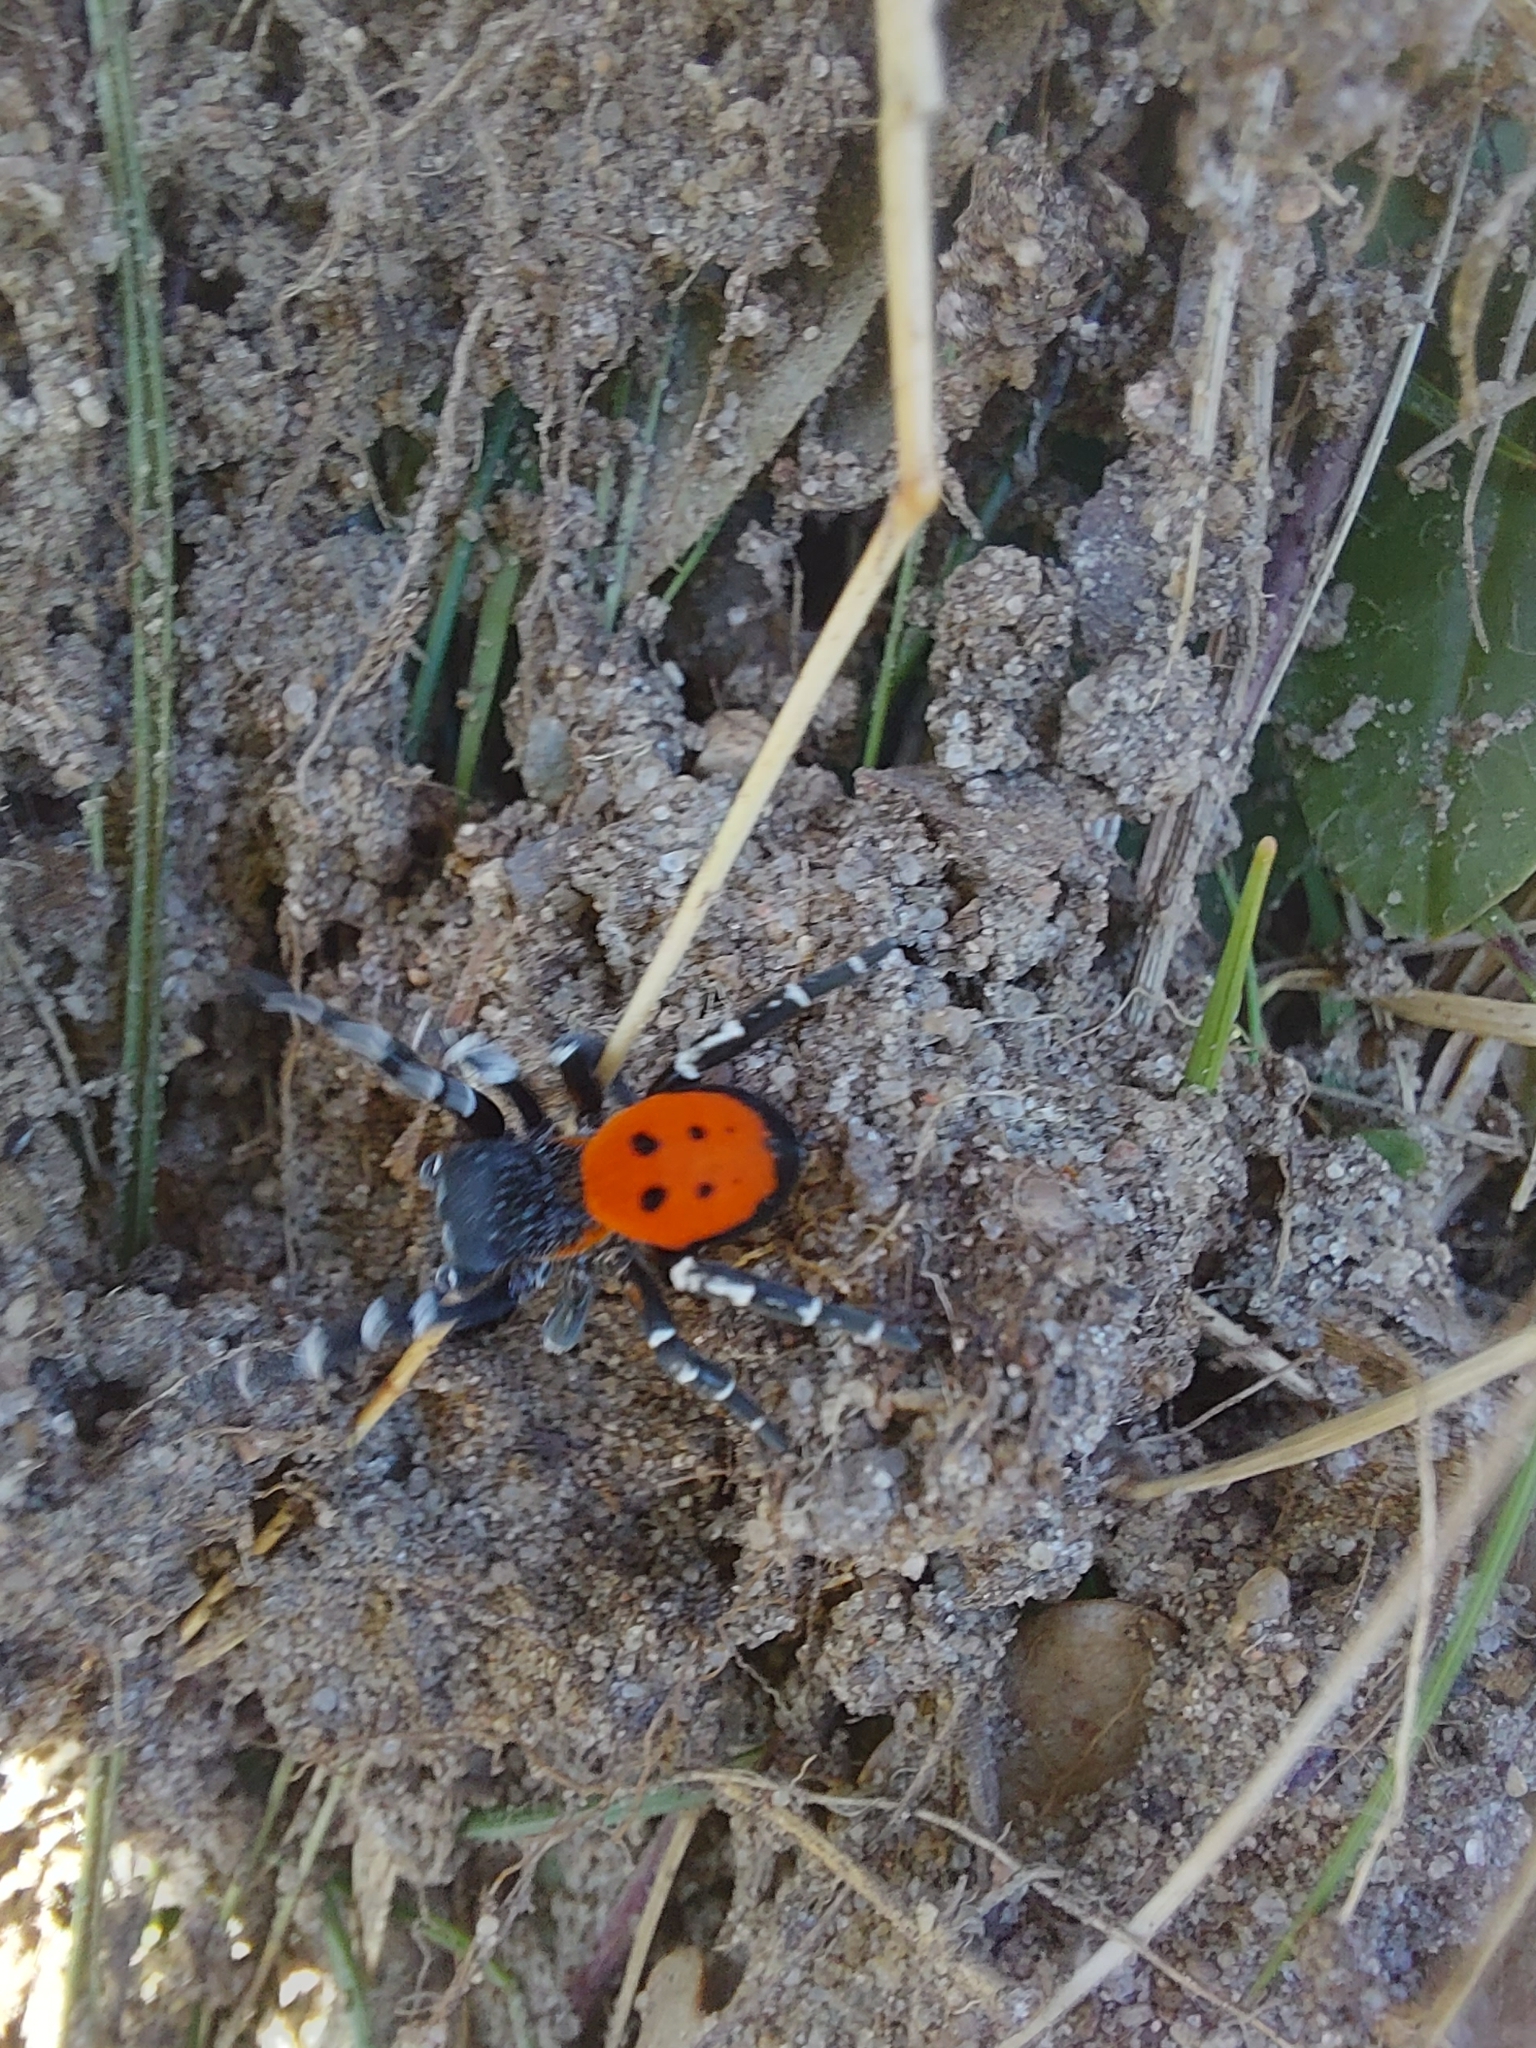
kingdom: Animalia
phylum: Arthropoda
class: Arachnida
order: Araneae
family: Eresidae
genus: Eresus
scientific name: Eresus sandaliatus
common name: Ladybird spider
